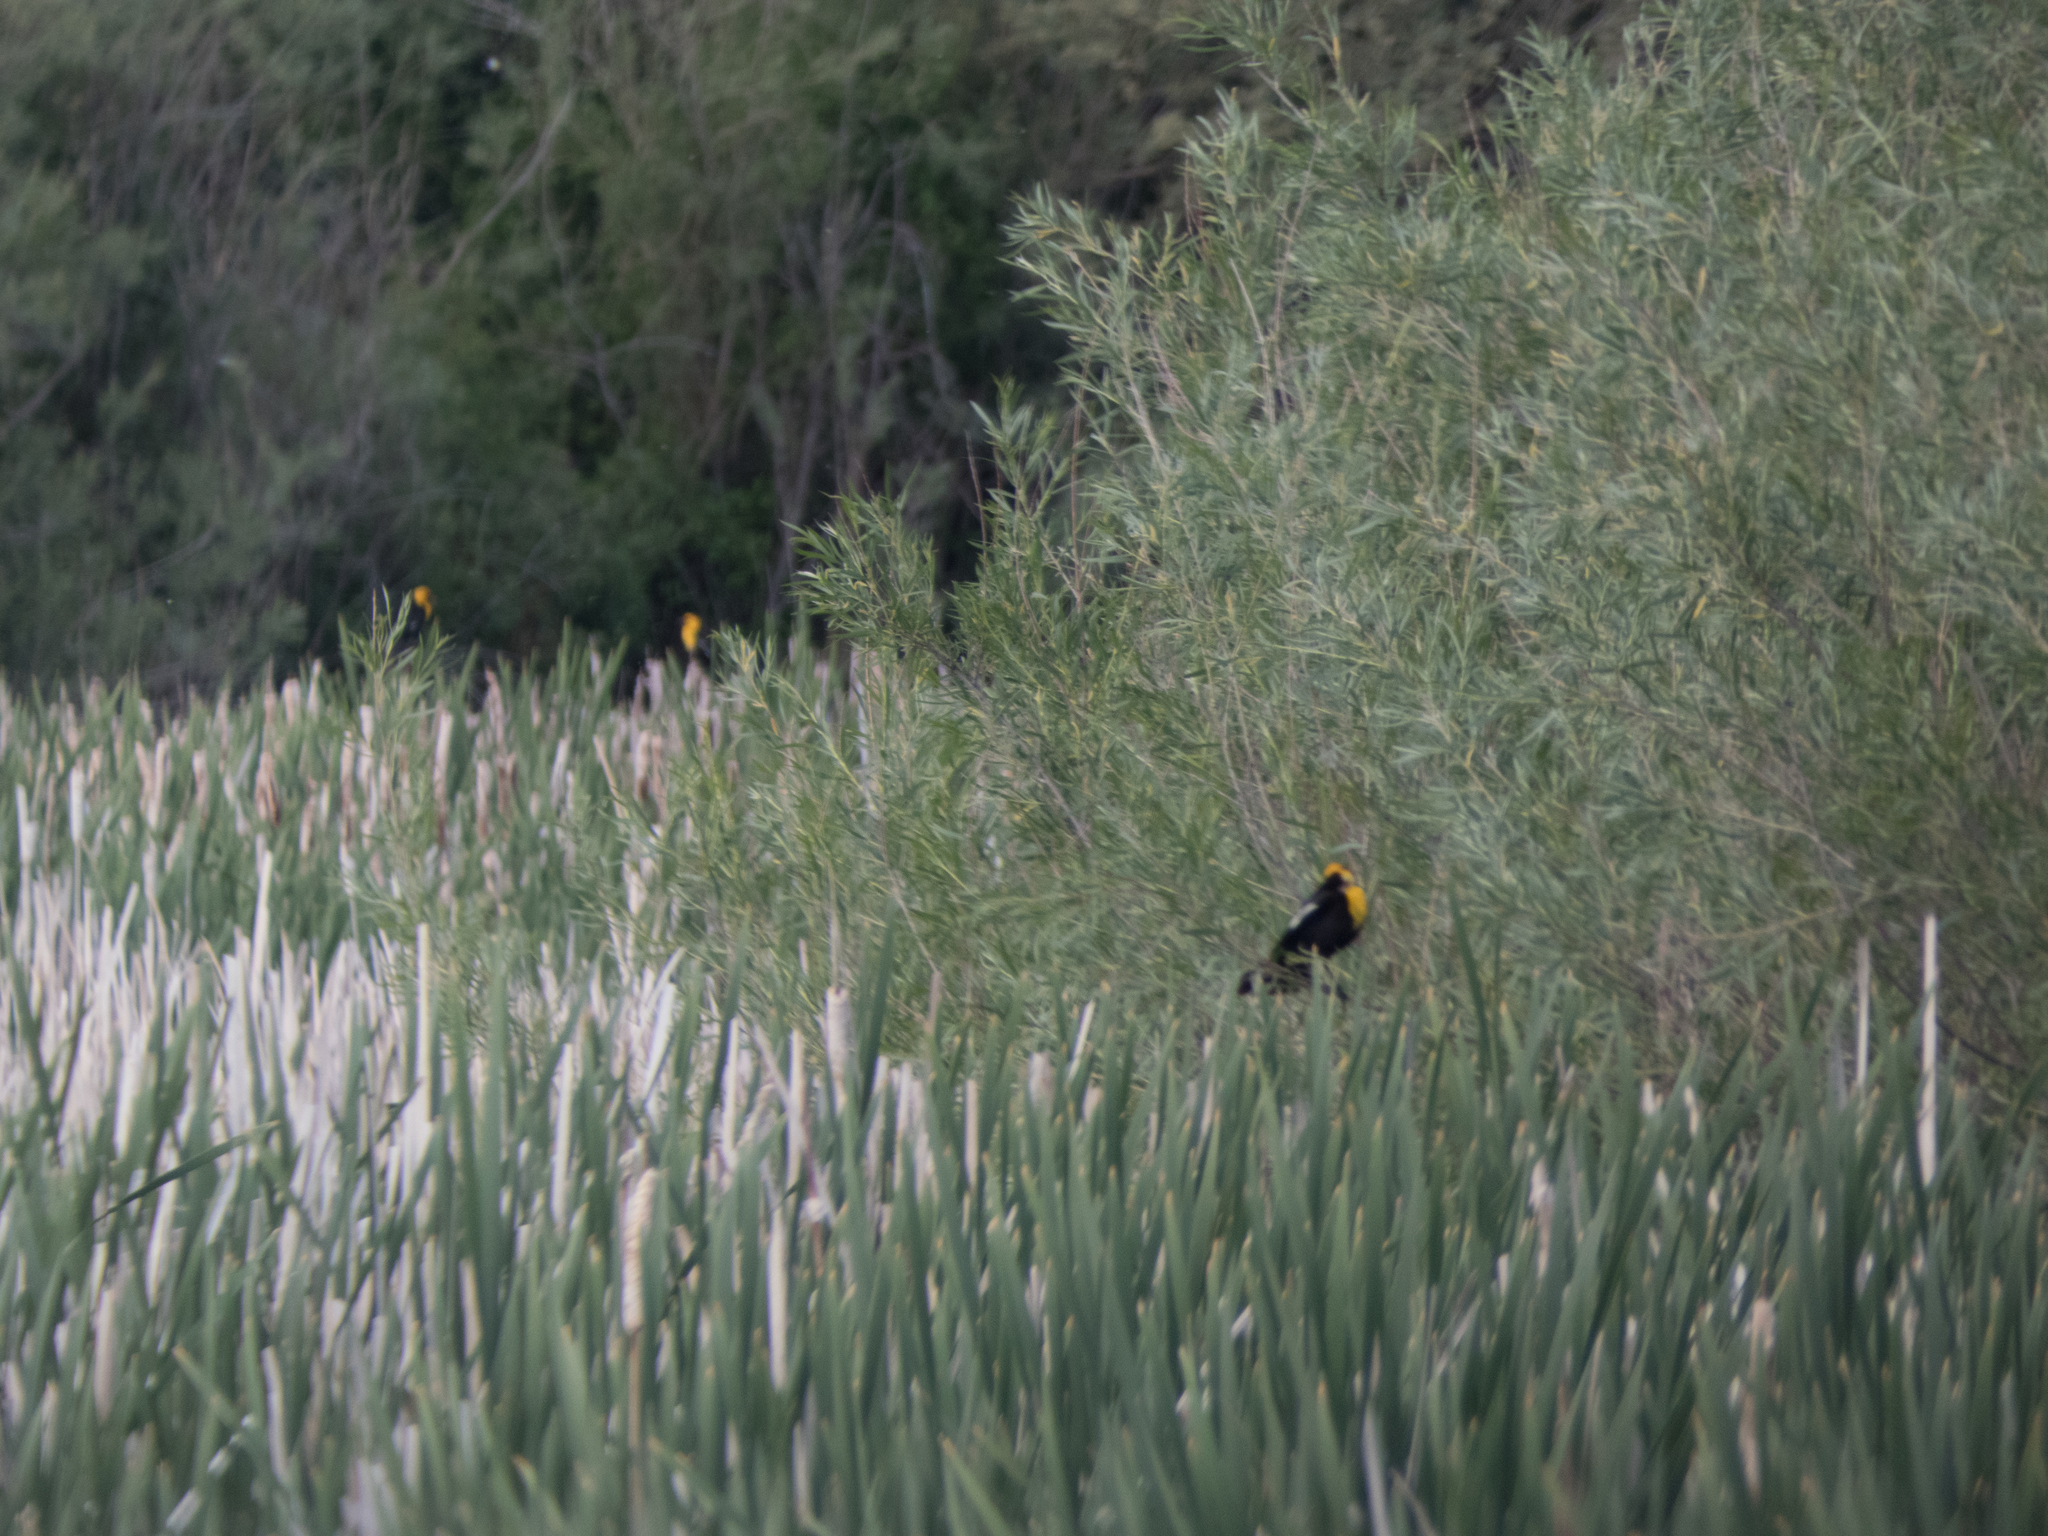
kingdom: Animalia
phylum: Chordata
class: Aves
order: Passeriformes
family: Icteridae
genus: Xanthocephalus
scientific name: Xanthocephalus xanthocephalus
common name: Yellow-headed blackbird
